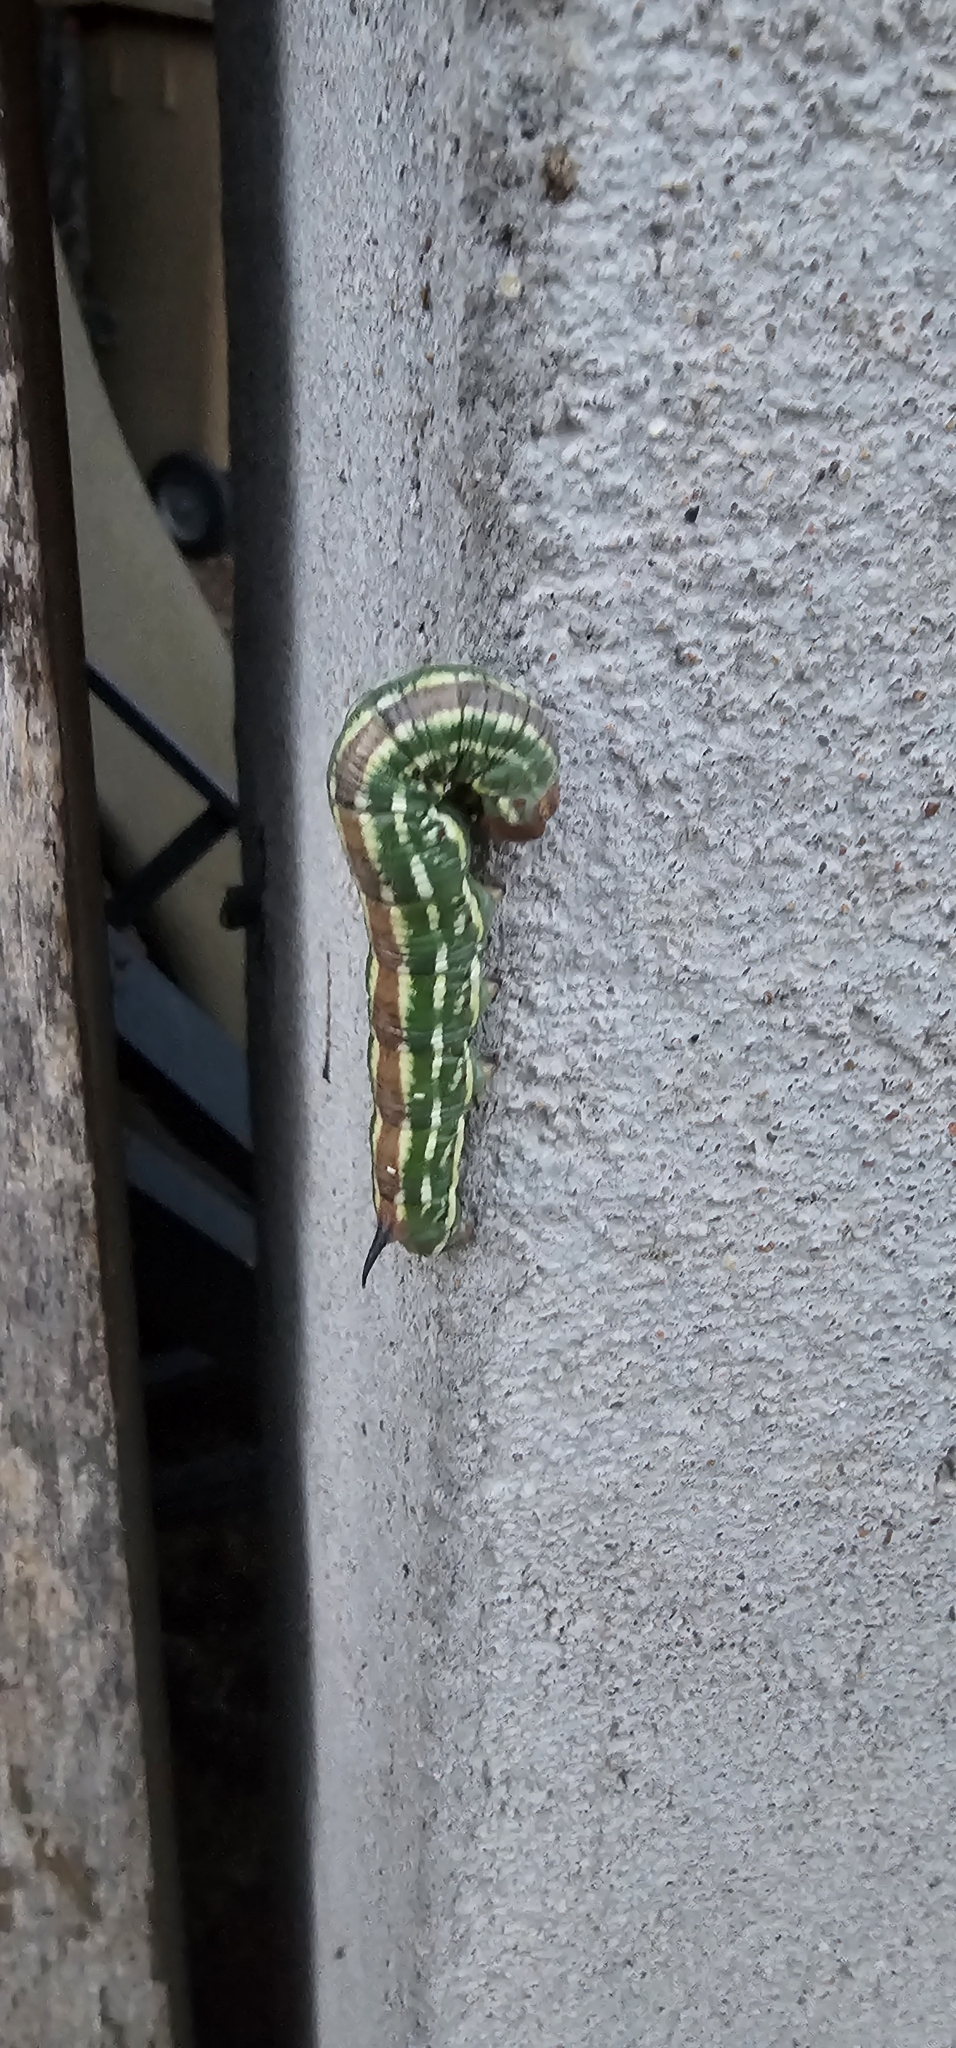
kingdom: Animalia
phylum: Arthropoda
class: Insecta
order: Lepidoptera
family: Sphingidae
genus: Sphinx
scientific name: Sphinx pinastri
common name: Pine hawk-moth
